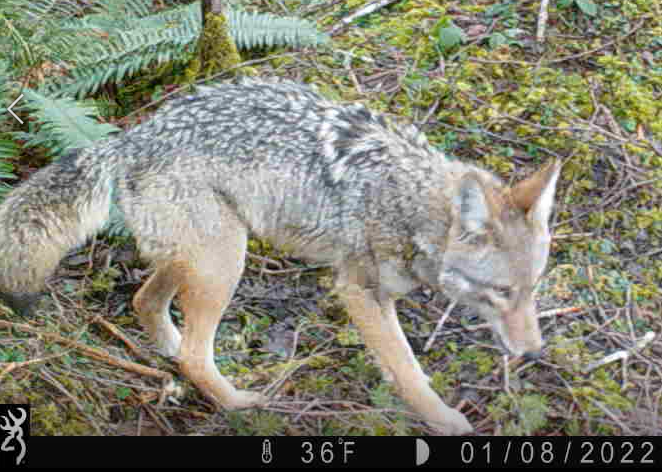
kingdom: Animalia
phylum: Chordata
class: Mammalia
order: Carnivora
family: Canidae
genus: Canis
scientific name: Canis latrans
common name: Coyote
